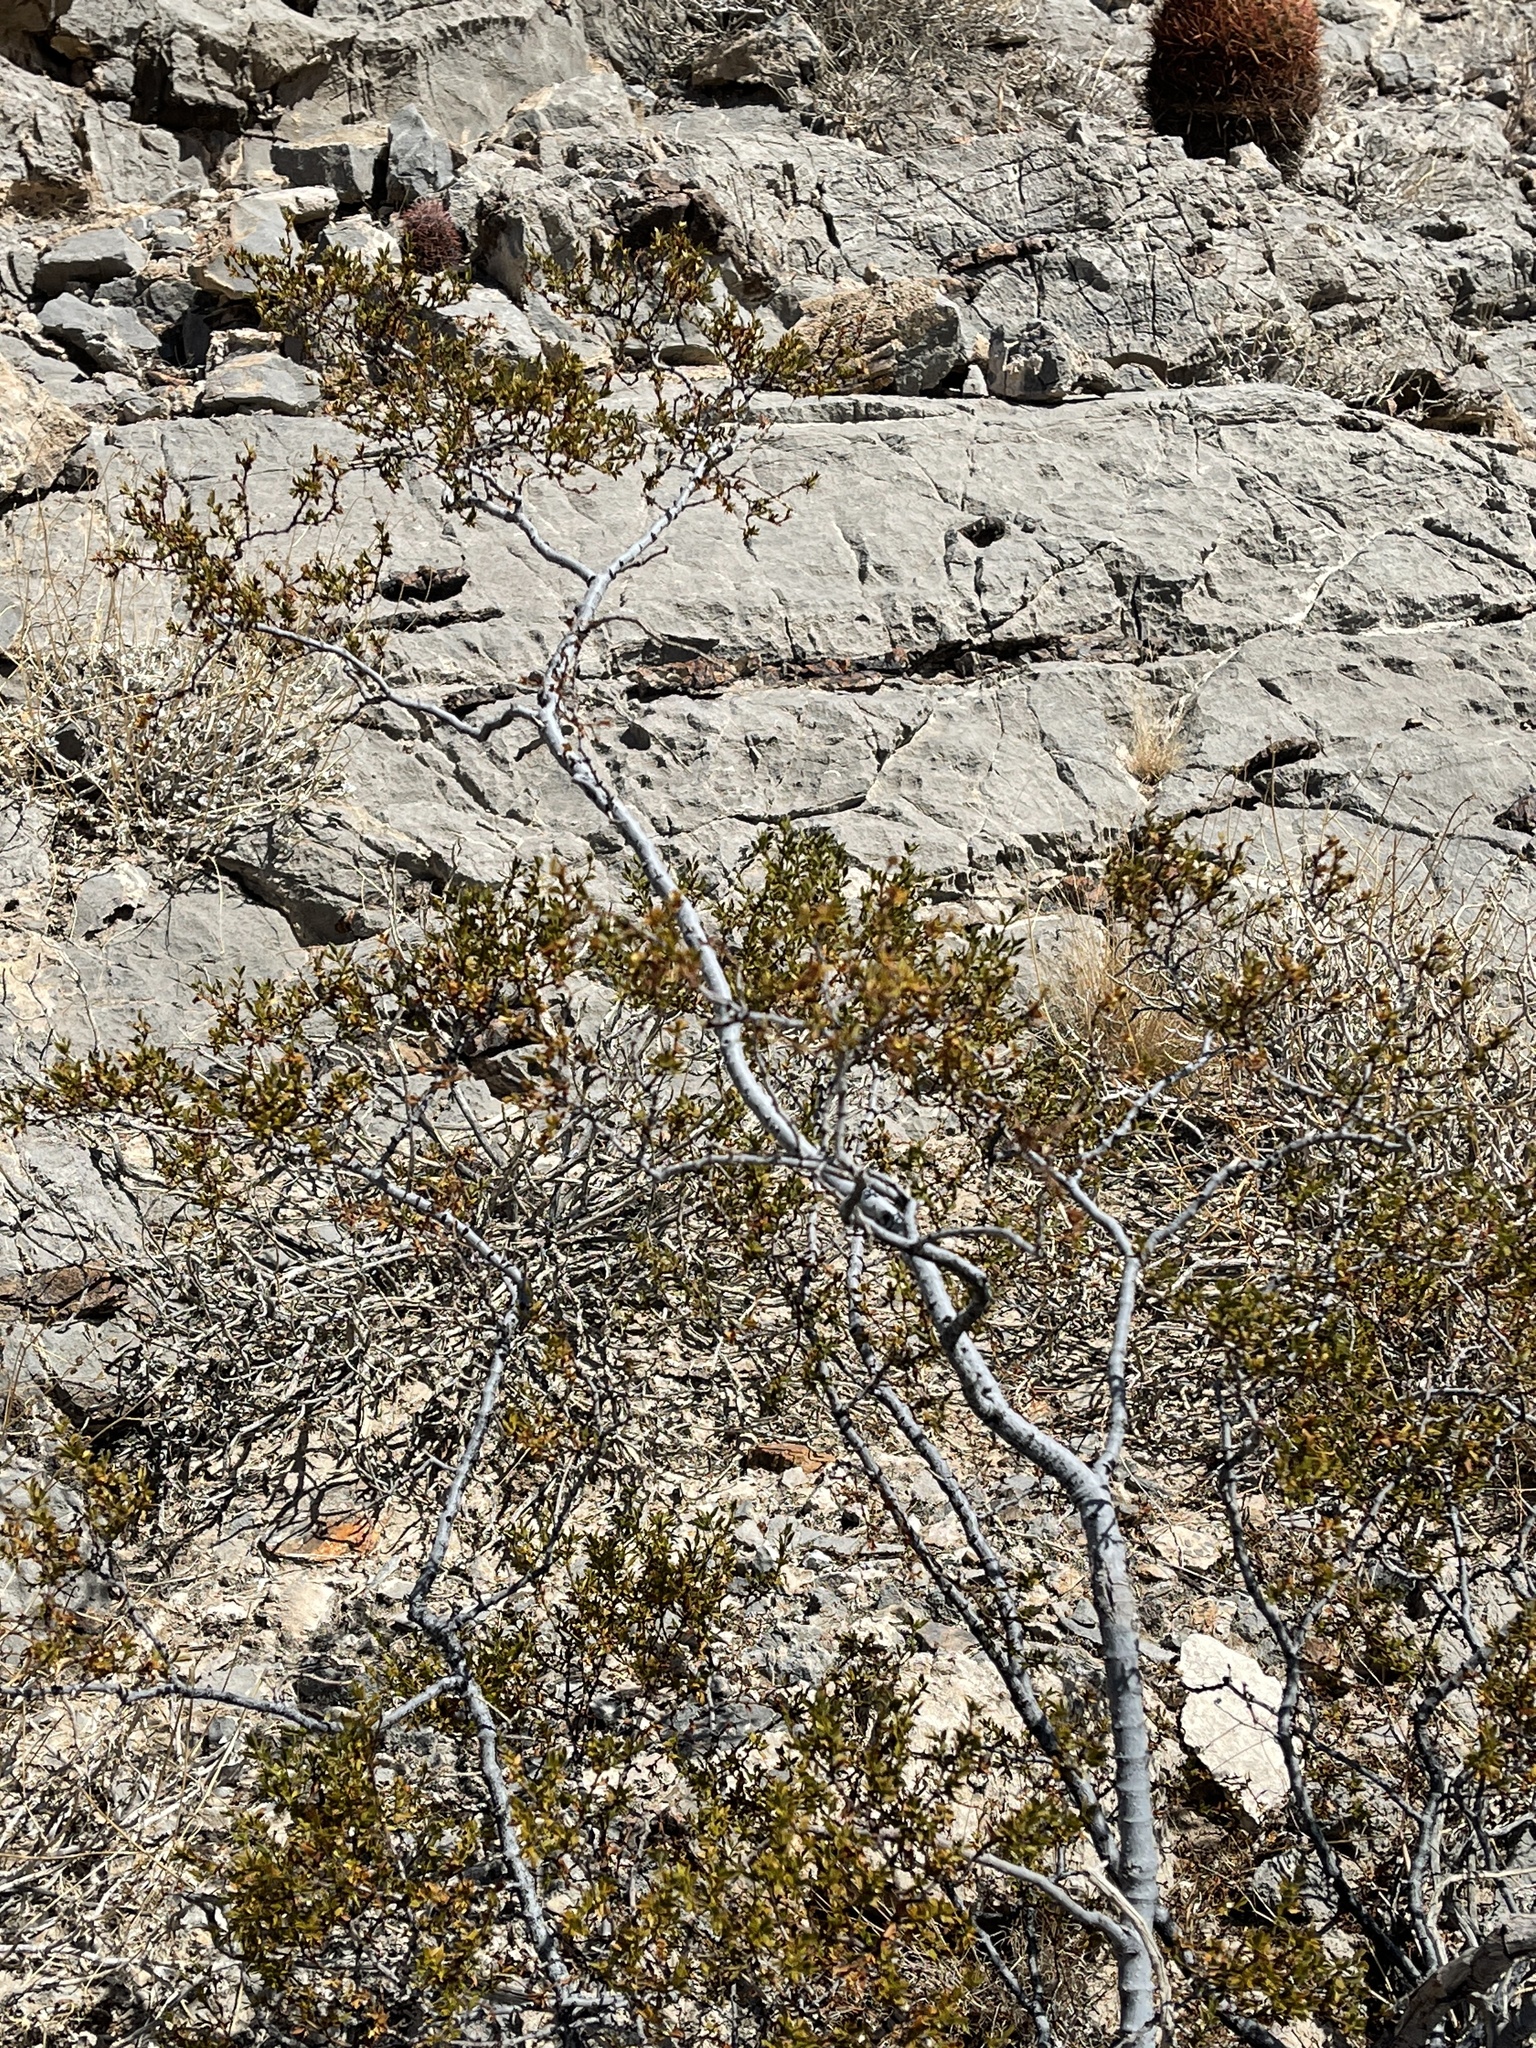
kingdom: Plantae
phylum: Tracheophyta
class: Magnoliopsida
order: Zygophyllales
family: Zygophyllaceae
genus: Larrea
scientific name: Larrea tridentata
